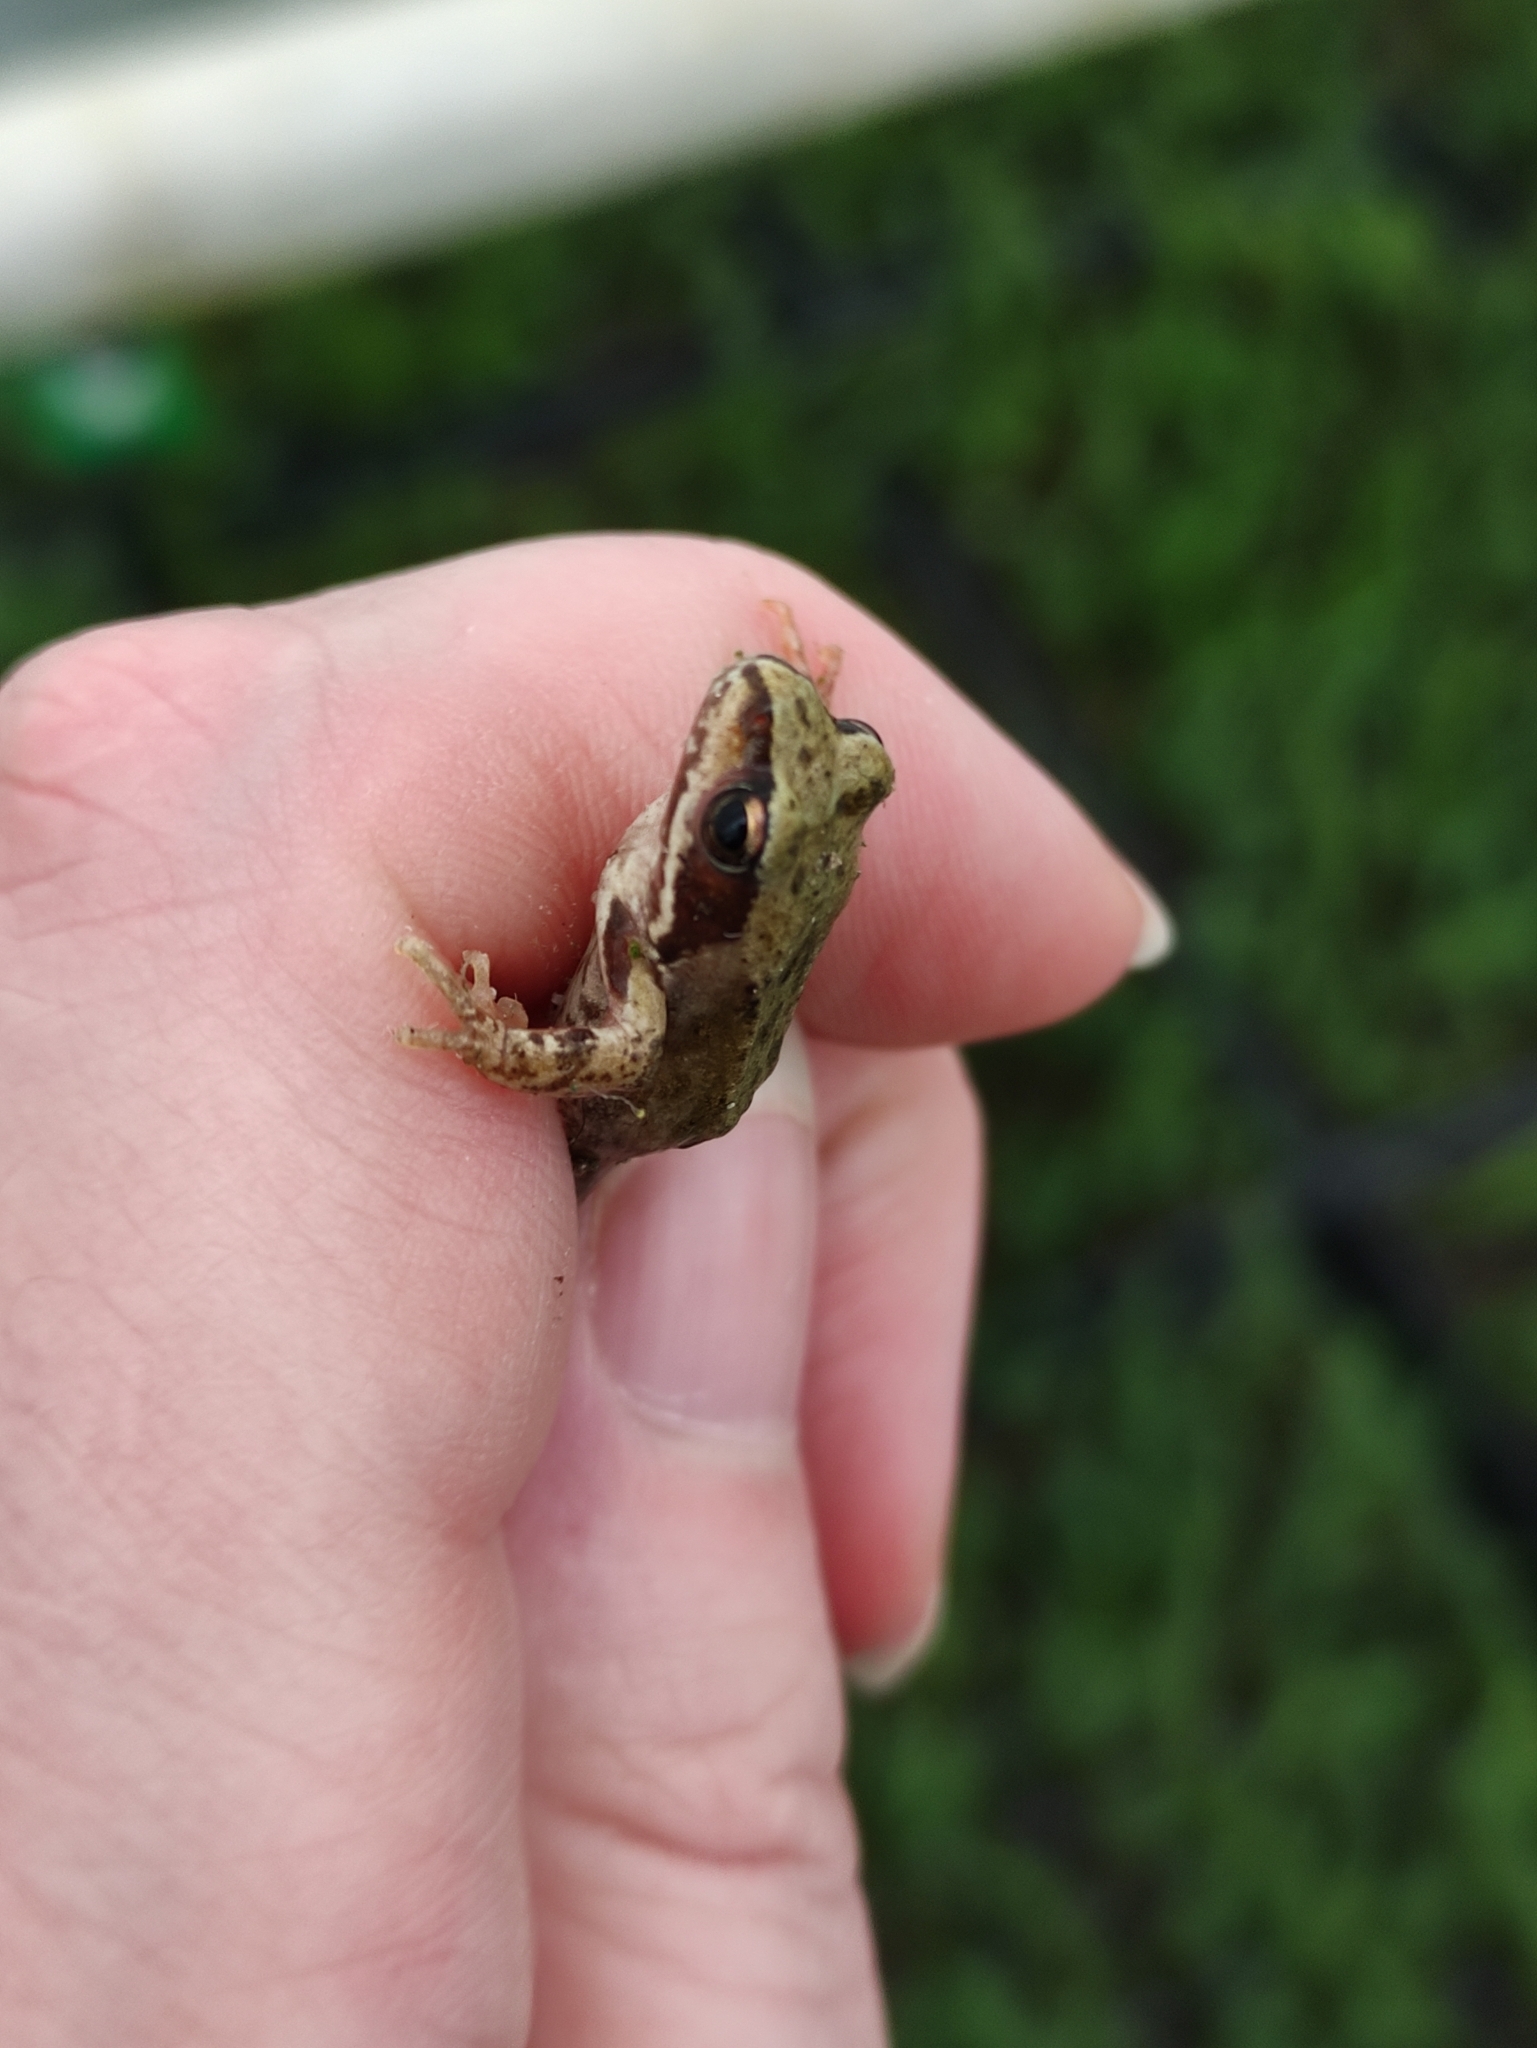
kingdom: Animalia
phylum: Chordata
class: Amphibia
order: Anura
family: Ranidae
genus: Rana
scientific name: Rana temporaria
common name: Common frog
